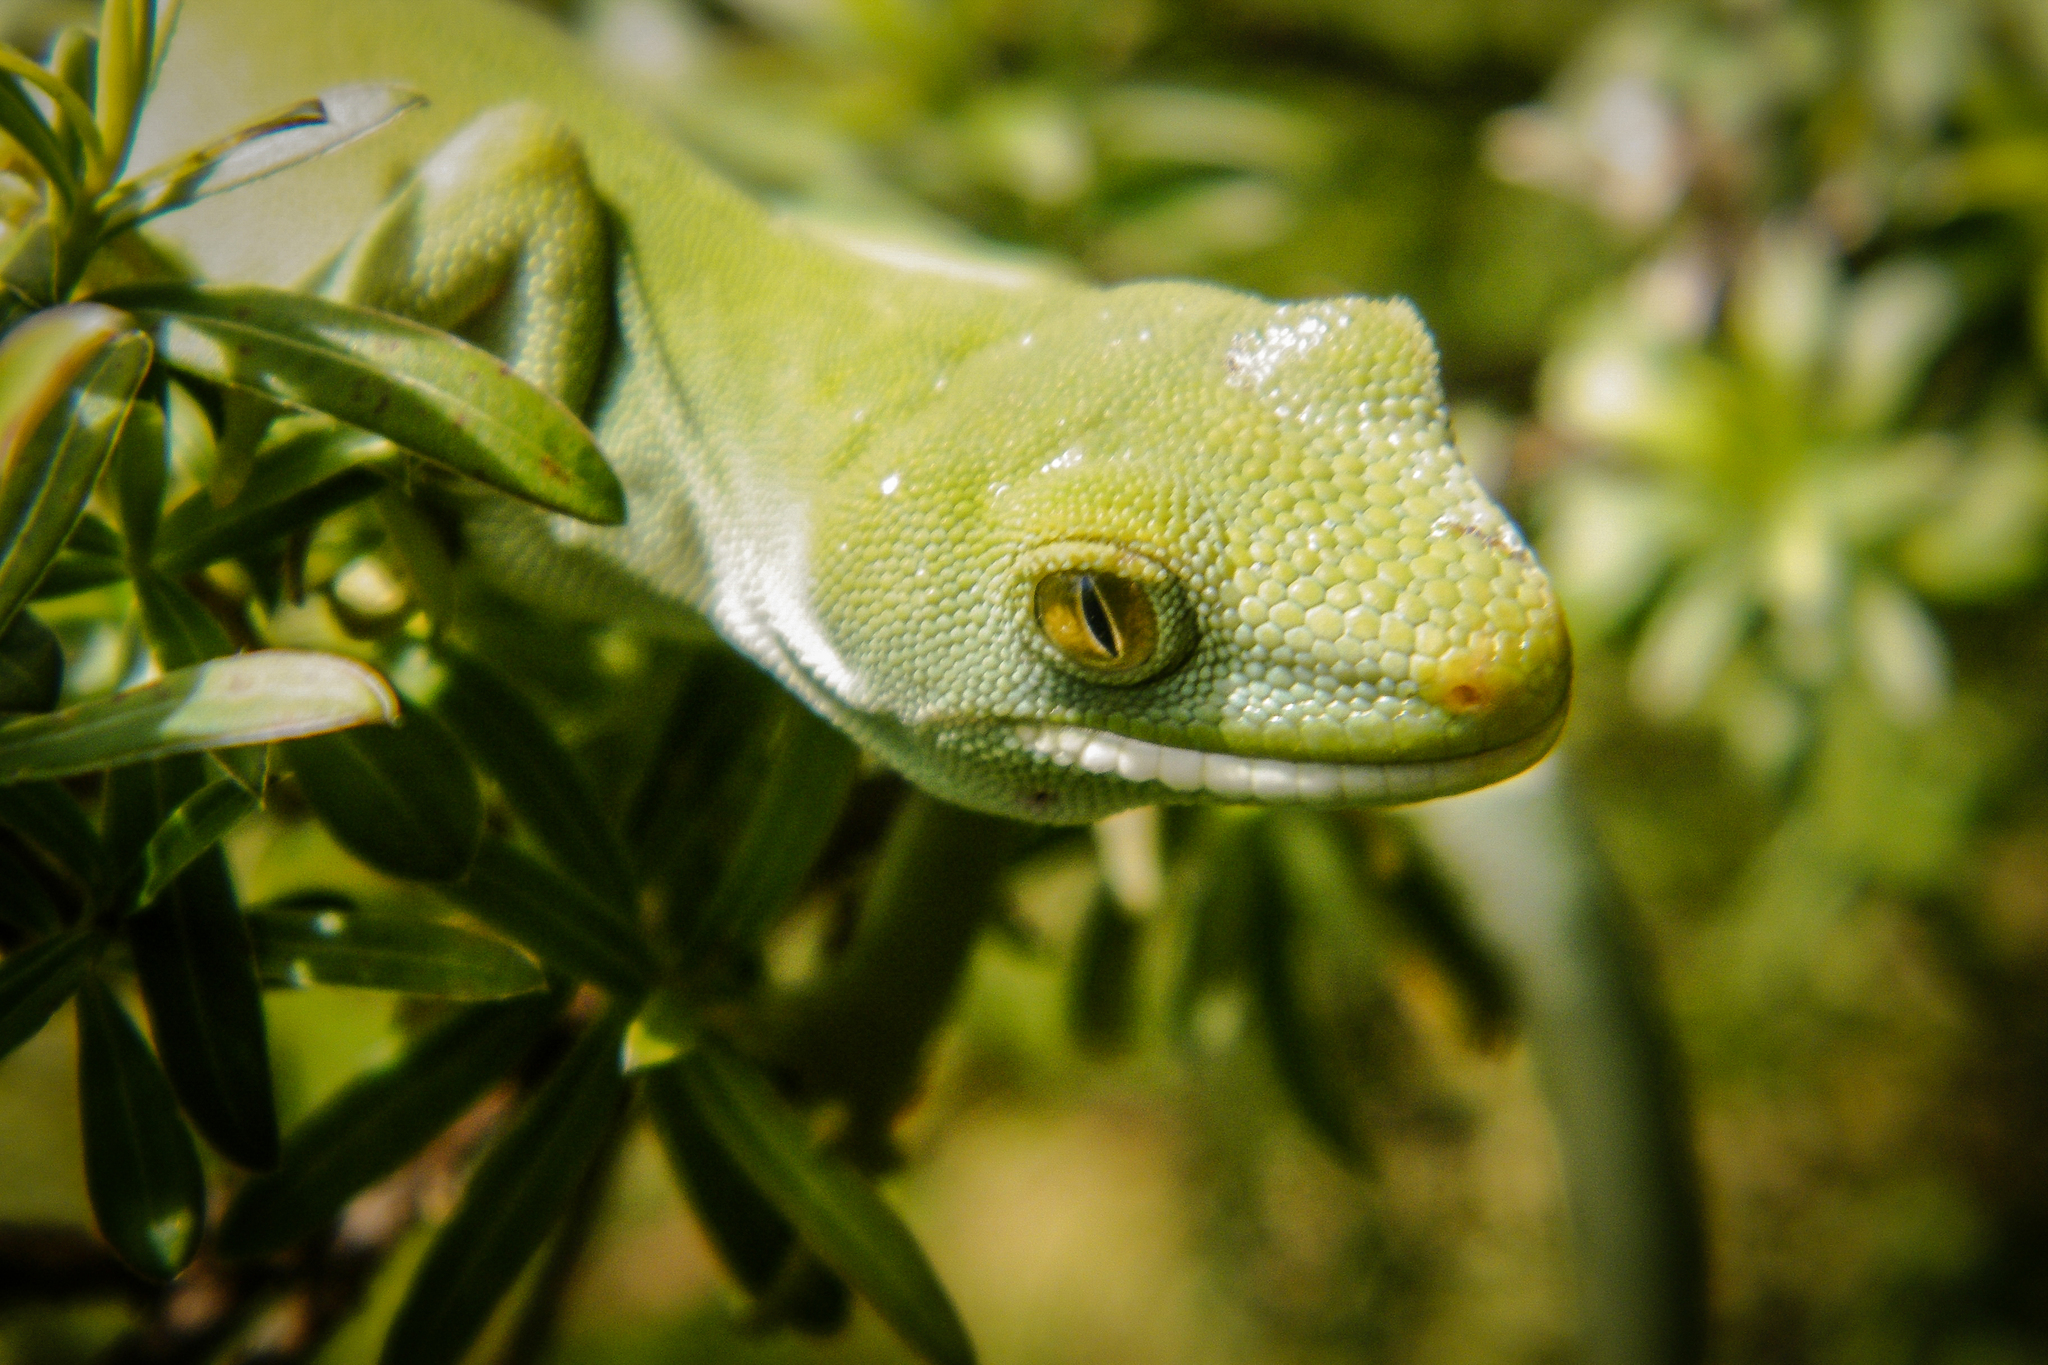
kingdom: Animalia
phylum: Chordata
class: Squamata
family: Diplodactylidae
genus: Naultinus
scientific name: Naultinus elegans
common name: Auckland green gecko
